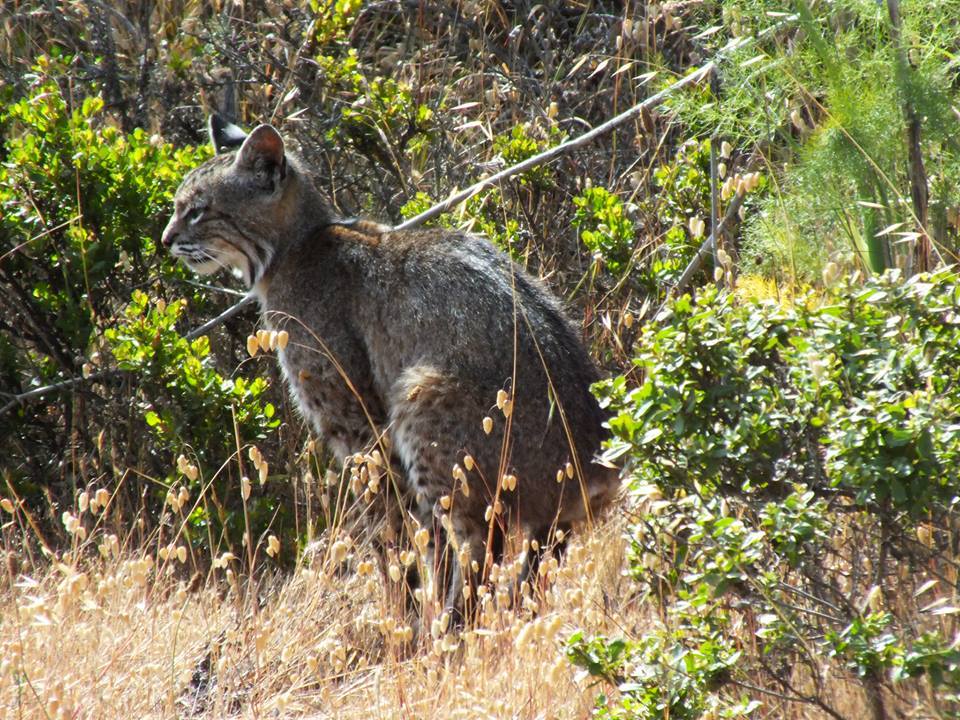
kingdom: Animalia
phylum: Chordata
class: Mammalia
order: Carnivora
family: Felidae
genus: Lynx
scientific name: Lynx rufus
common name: Bobcat
